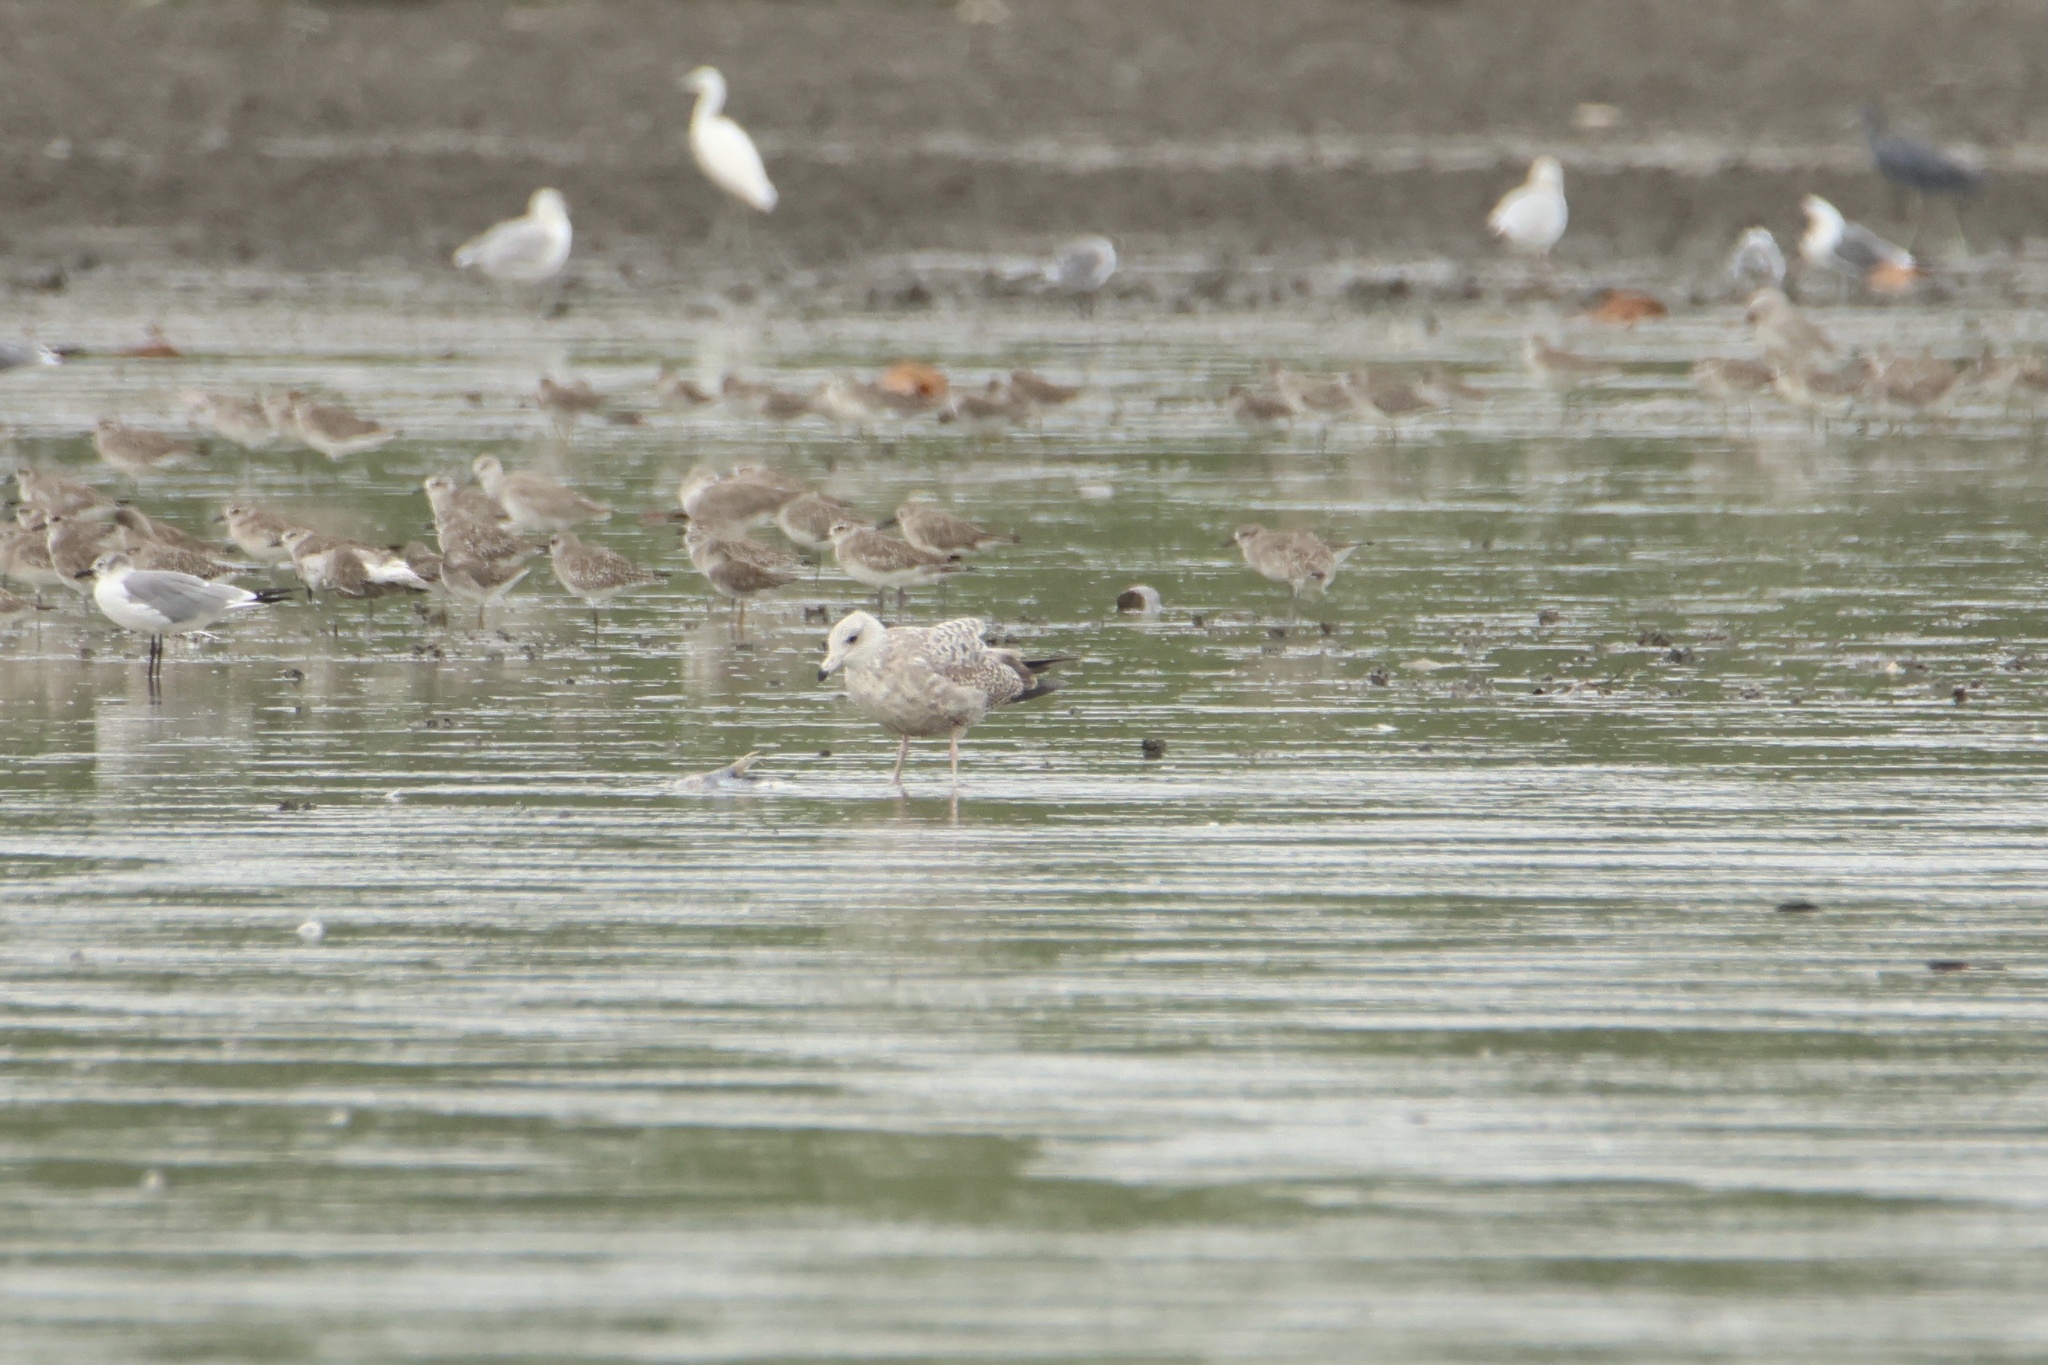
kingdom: Animalia
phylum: Chordata
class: Aves
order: Charadriiformes
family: Laridae
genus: Larus
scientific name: Larus argentatus
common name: Herring gull
